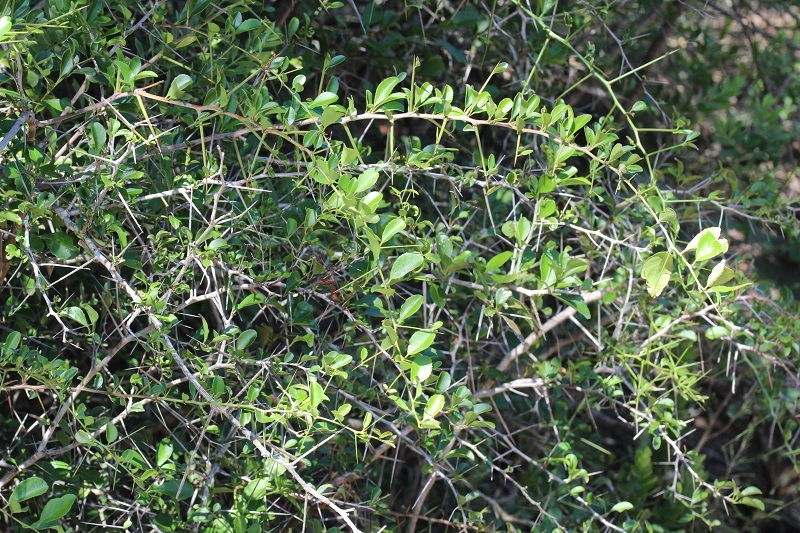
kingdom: Plantae
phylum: Tracheophyta
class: Magnoliopsida
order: Celastrales
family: Celastraceae
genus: Gymnosporia
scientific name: Gymnosporia nemorosa
